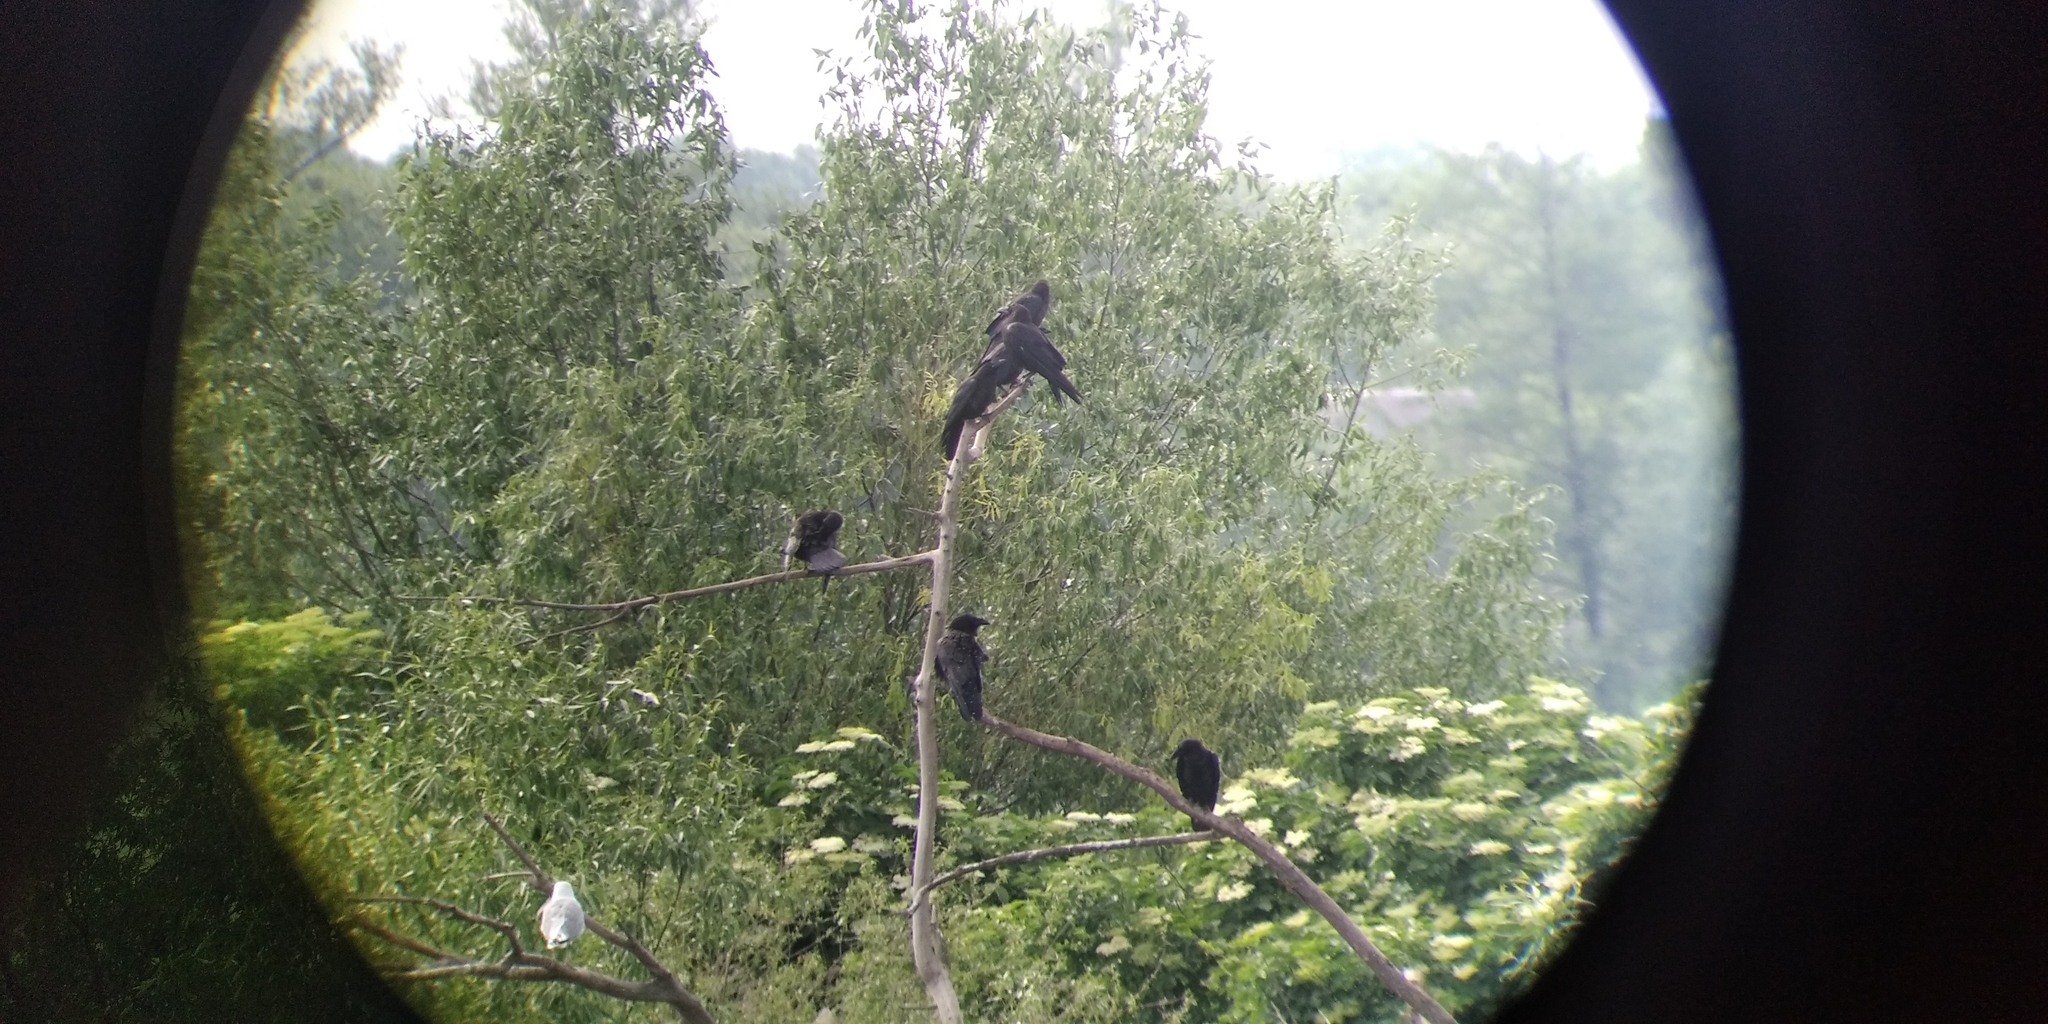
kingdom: Animalia
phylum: Chordata
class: Aves
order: Passeriformes
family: Corvidae
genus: Corvus
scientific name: Corvus corax
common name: Common raven
